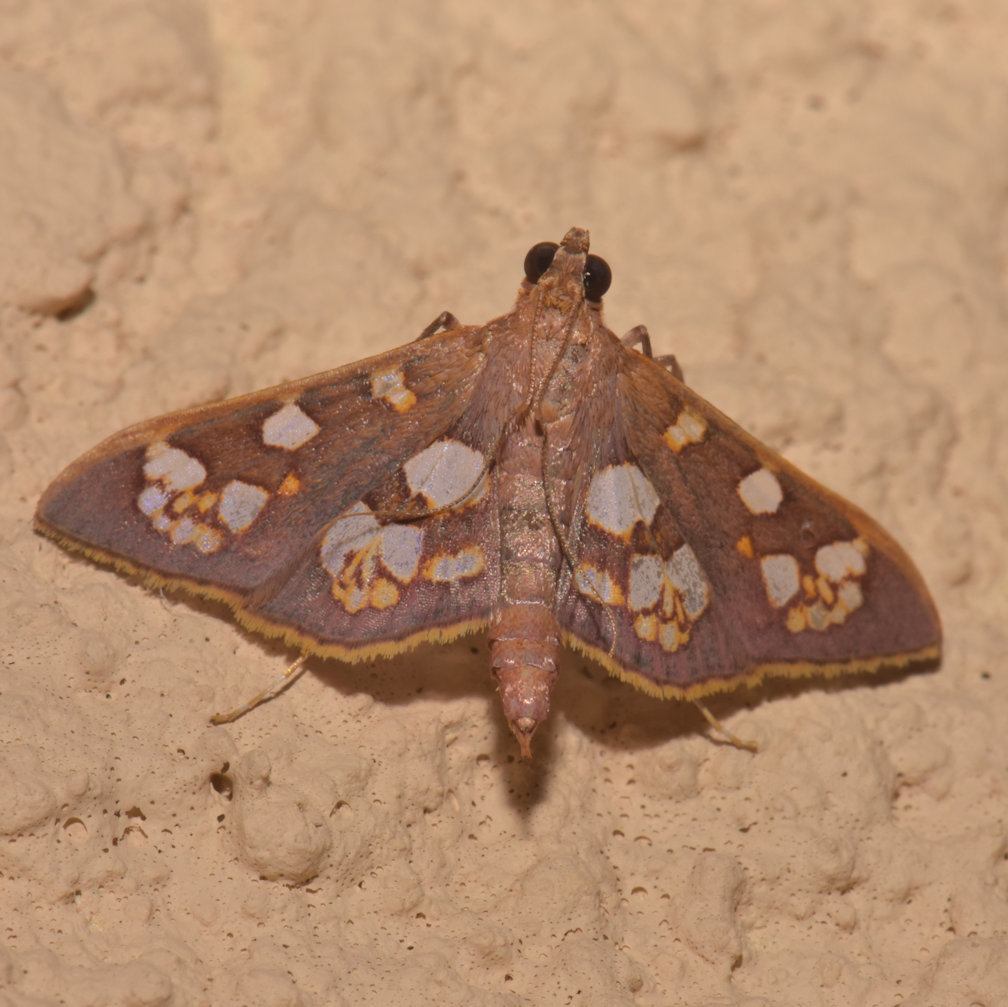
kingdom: Animalia
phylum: Arthropoda
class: Insecta
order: Lepidoptera
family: Crambidae
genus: Trithyris
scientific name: Trithyris
